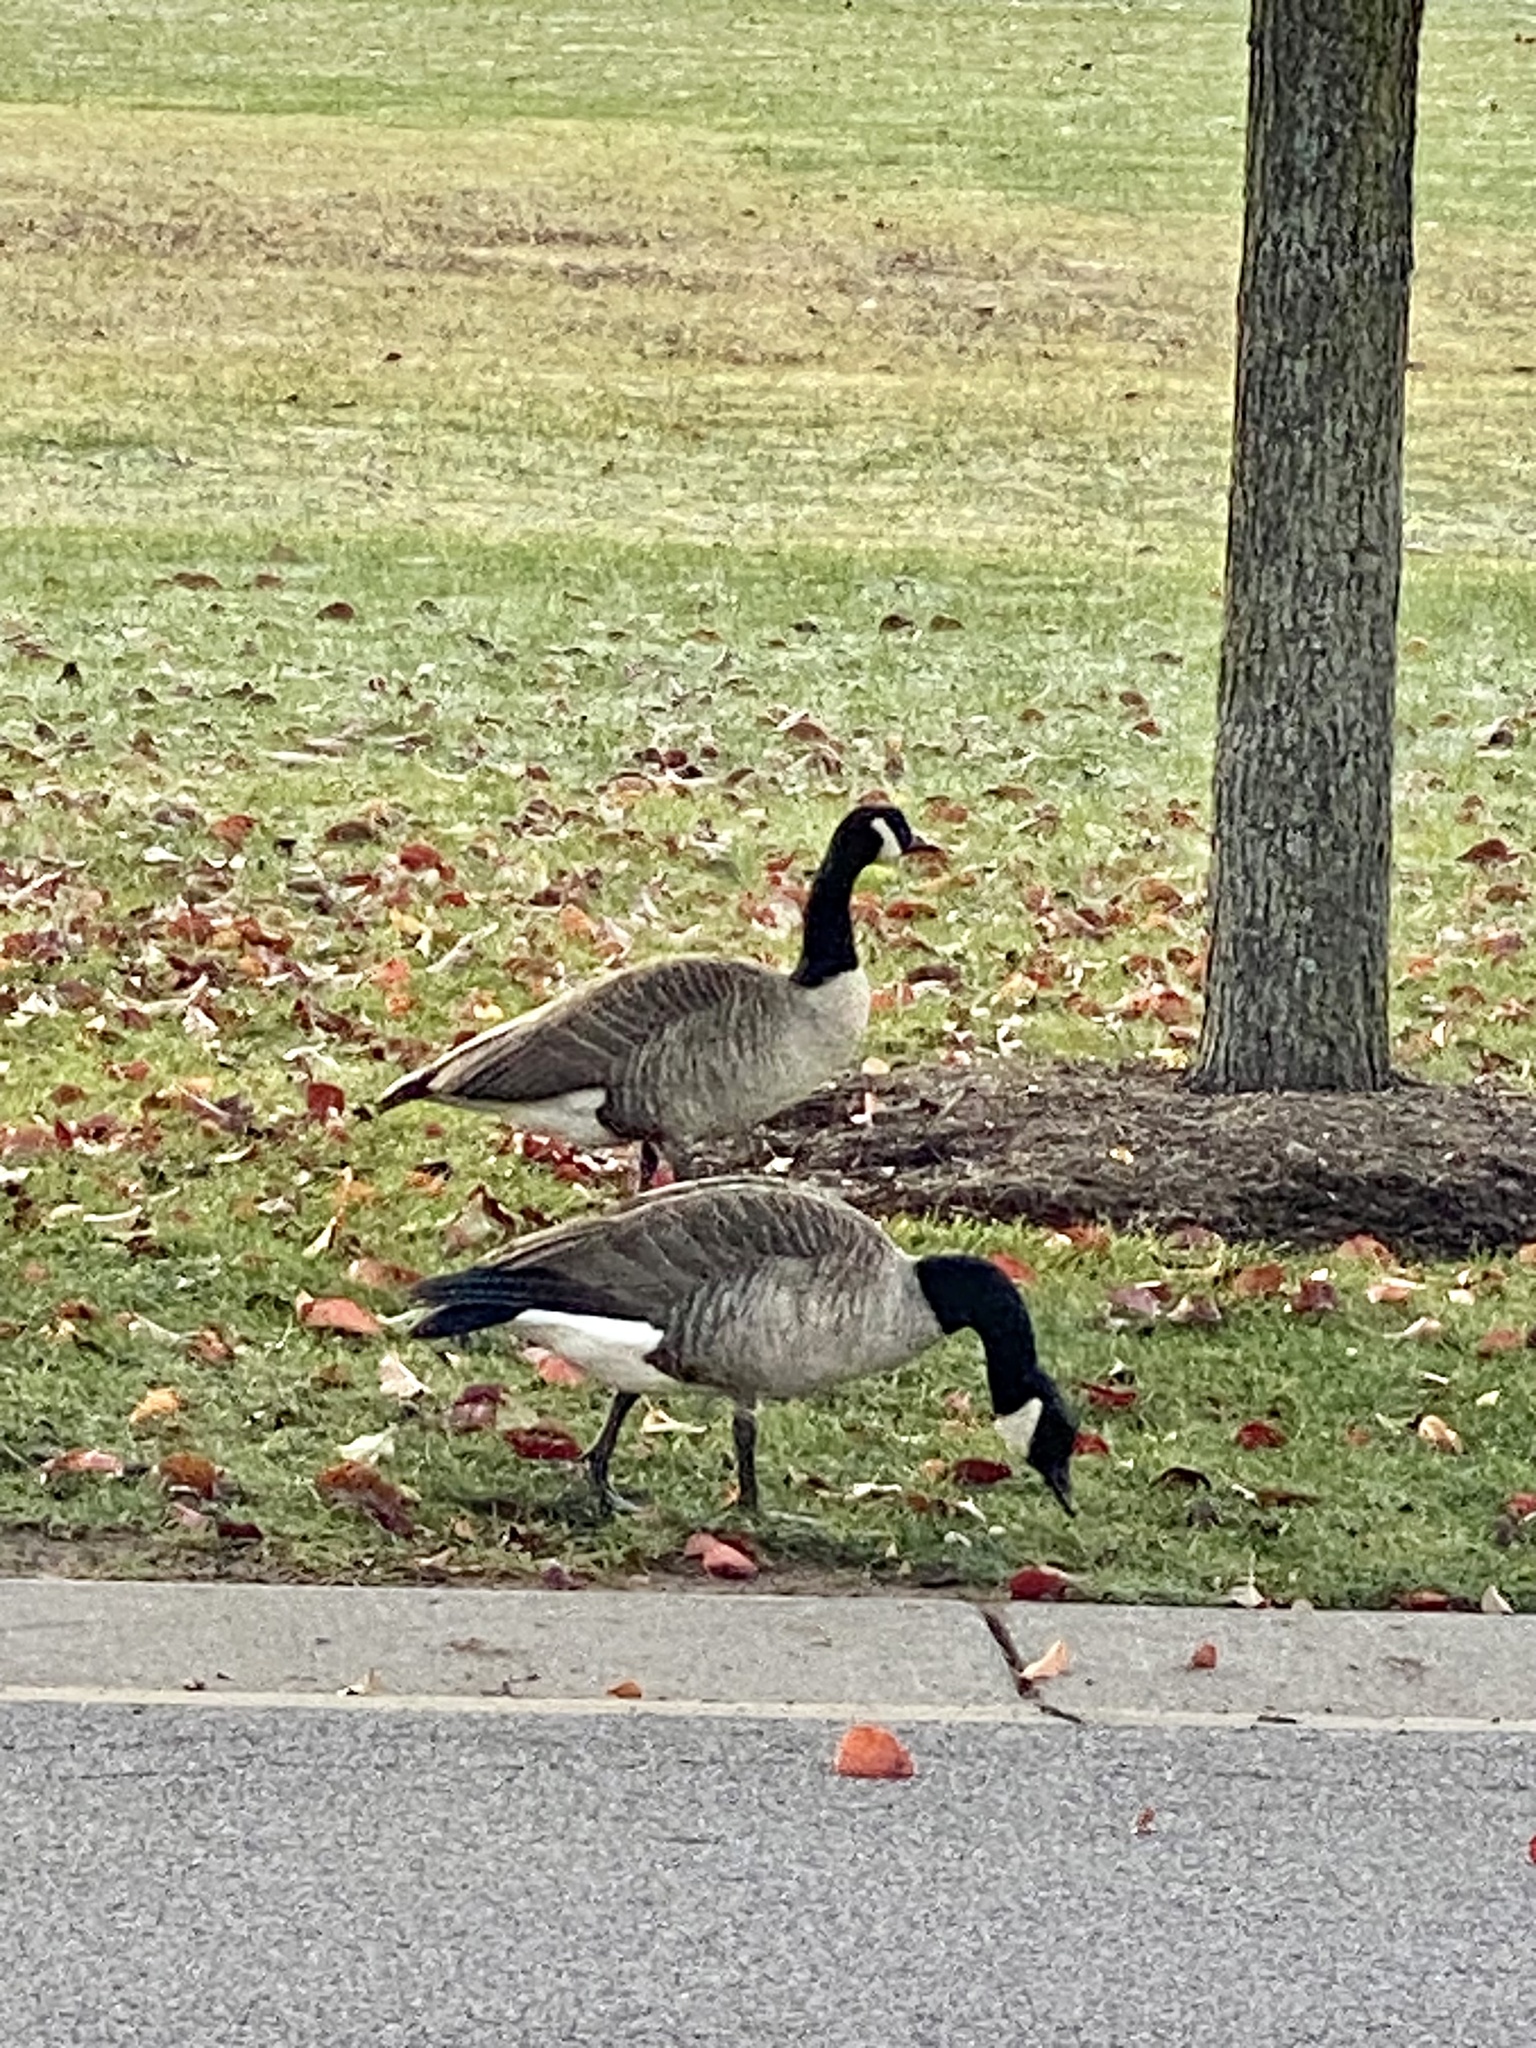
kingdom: Animalia
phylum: Chordata
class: Aves
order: Anseriformes
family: Anatidae
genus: Branta
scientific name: Branta canadensis
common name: Canada goose
